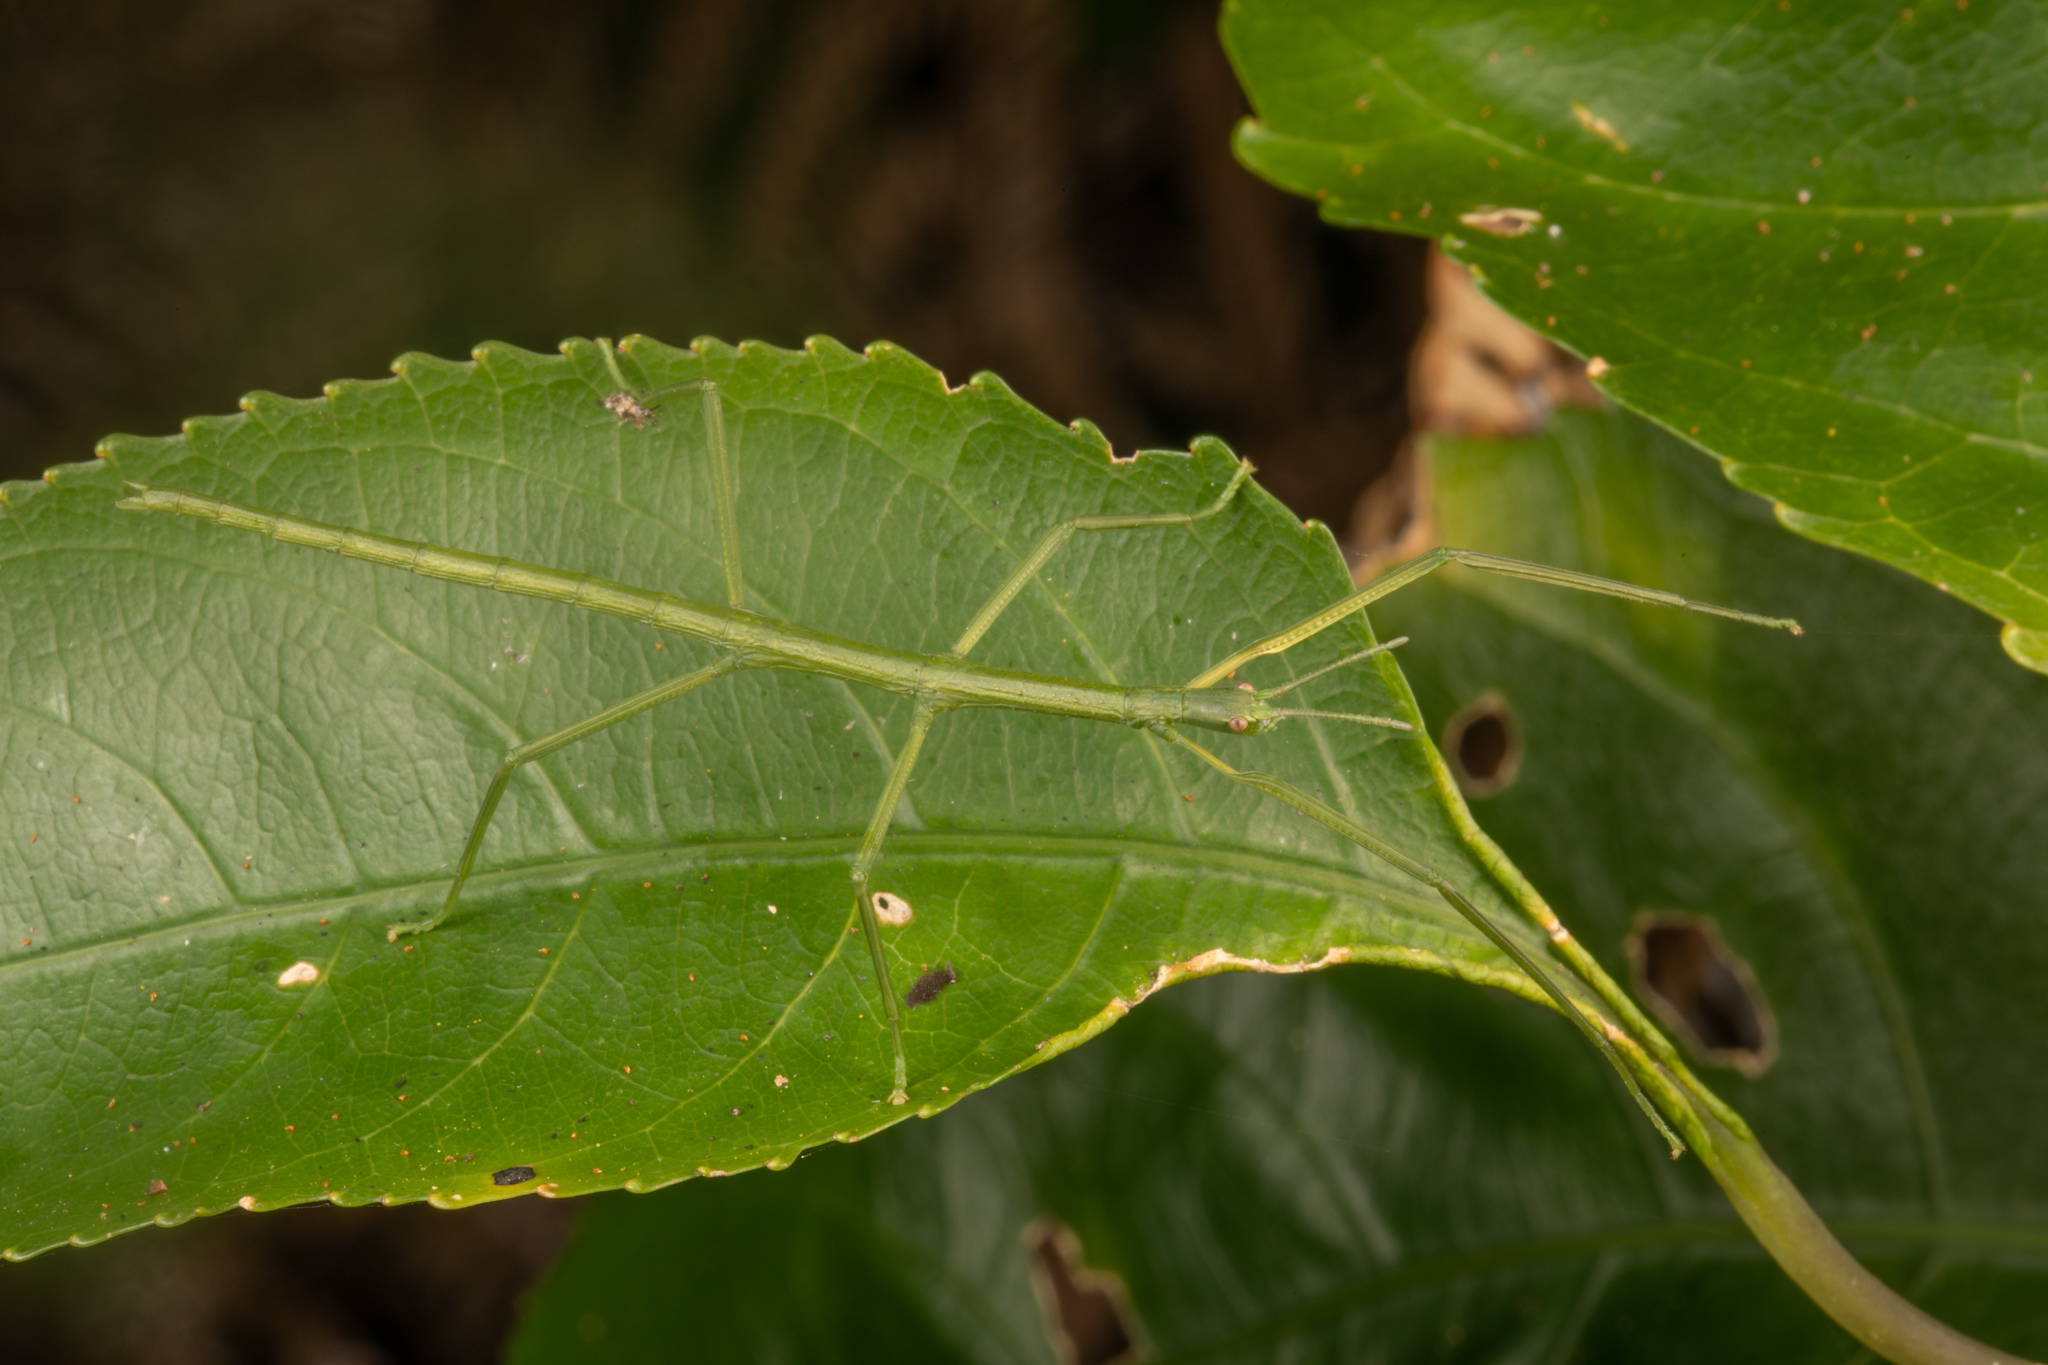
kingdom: Animalia
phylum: Arthropoda
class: Insecta
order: Phasmida
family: Phasmatidae
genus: Clitarchus
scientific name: Clitarchus hookeri
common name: Smooth stick insect
